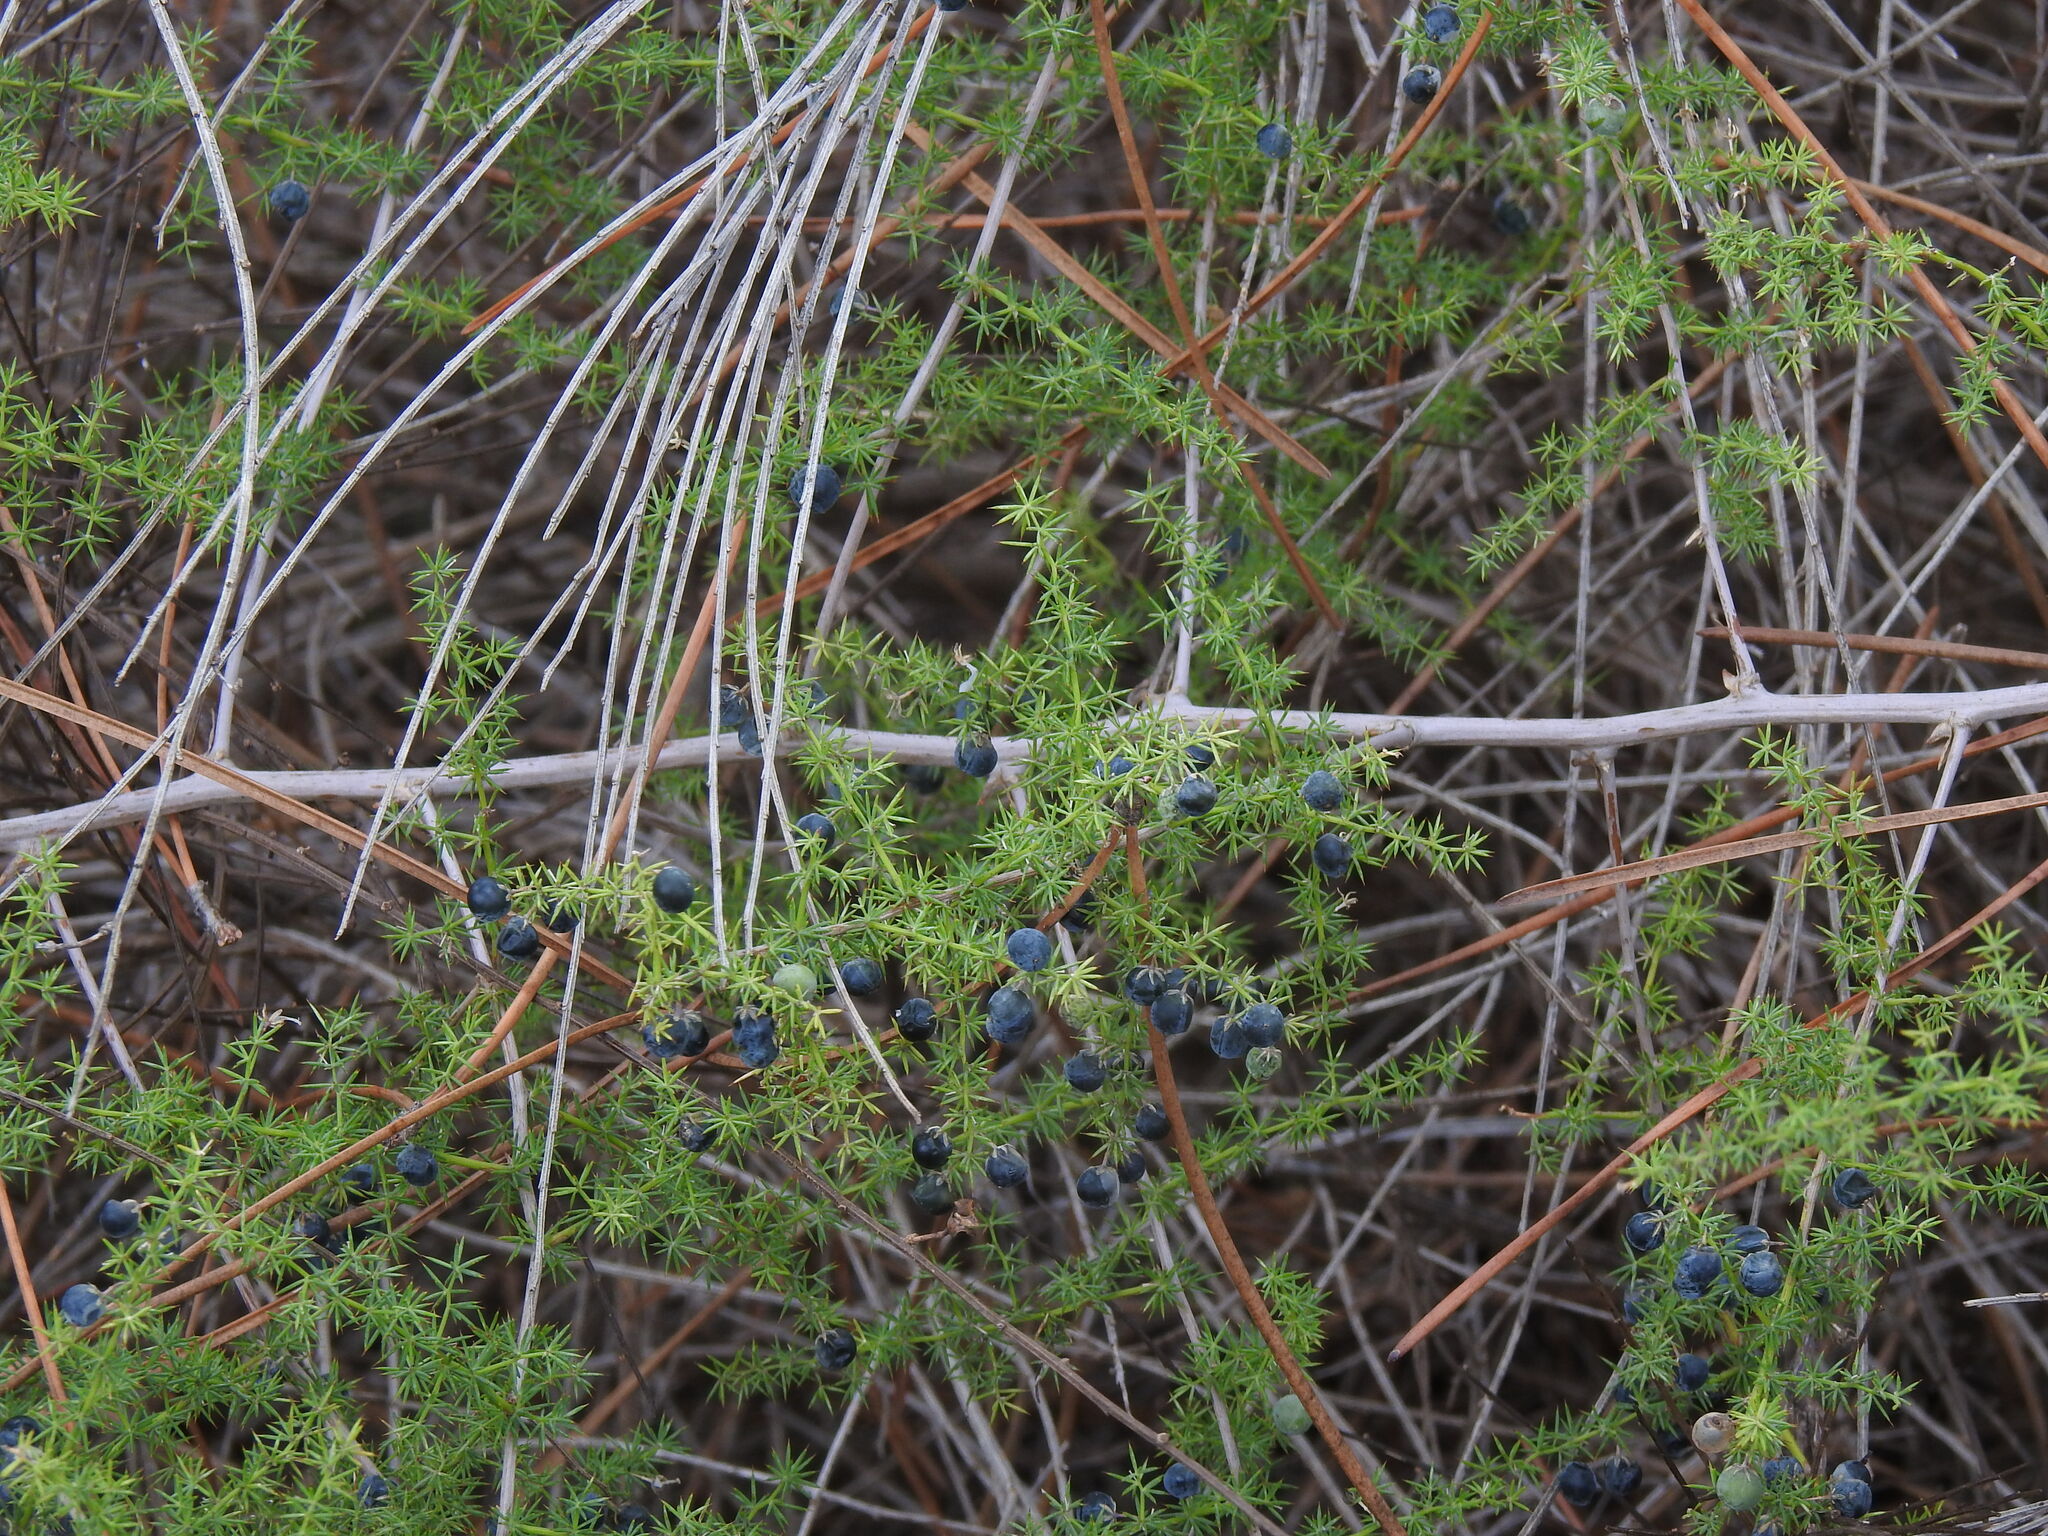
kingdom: Plantae
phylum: Tracheophyta
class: Liliopsida
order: Asparagales
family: Asparagaceae
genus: Asparagus
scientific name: Asparagus acutifolius
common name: Wild asparagus
